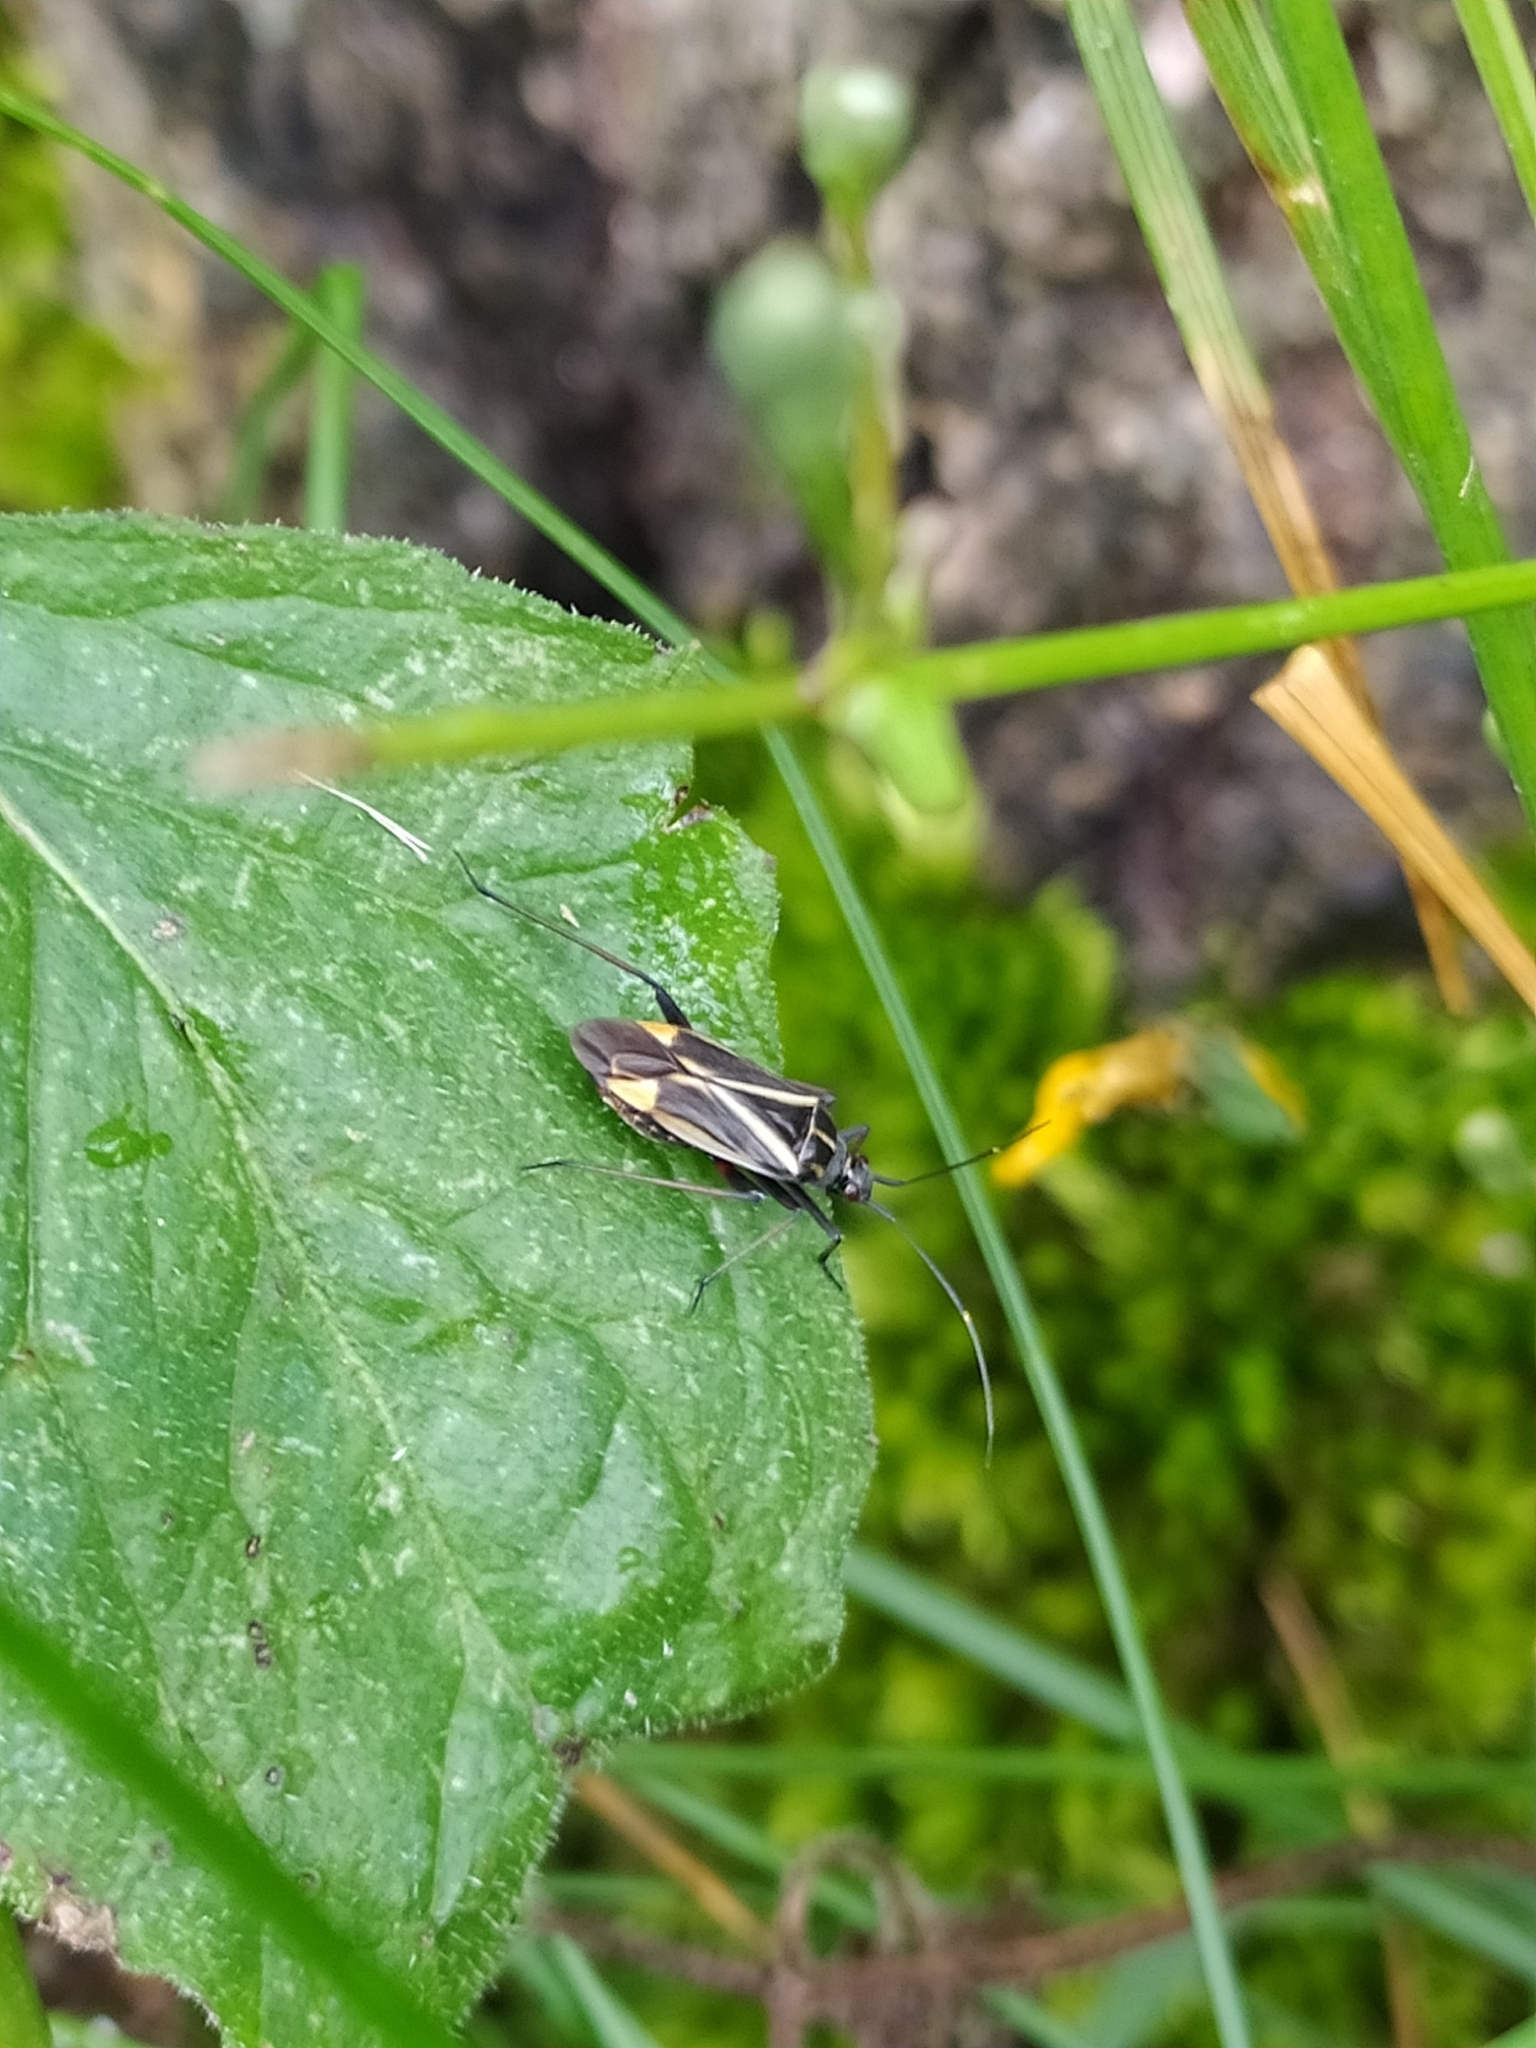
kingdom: Animalia
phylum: Arthropoda
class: Insecta
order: Hemiptera
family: Miridae
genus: Hadrodemus
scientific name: Hadrodemus m-flavum
